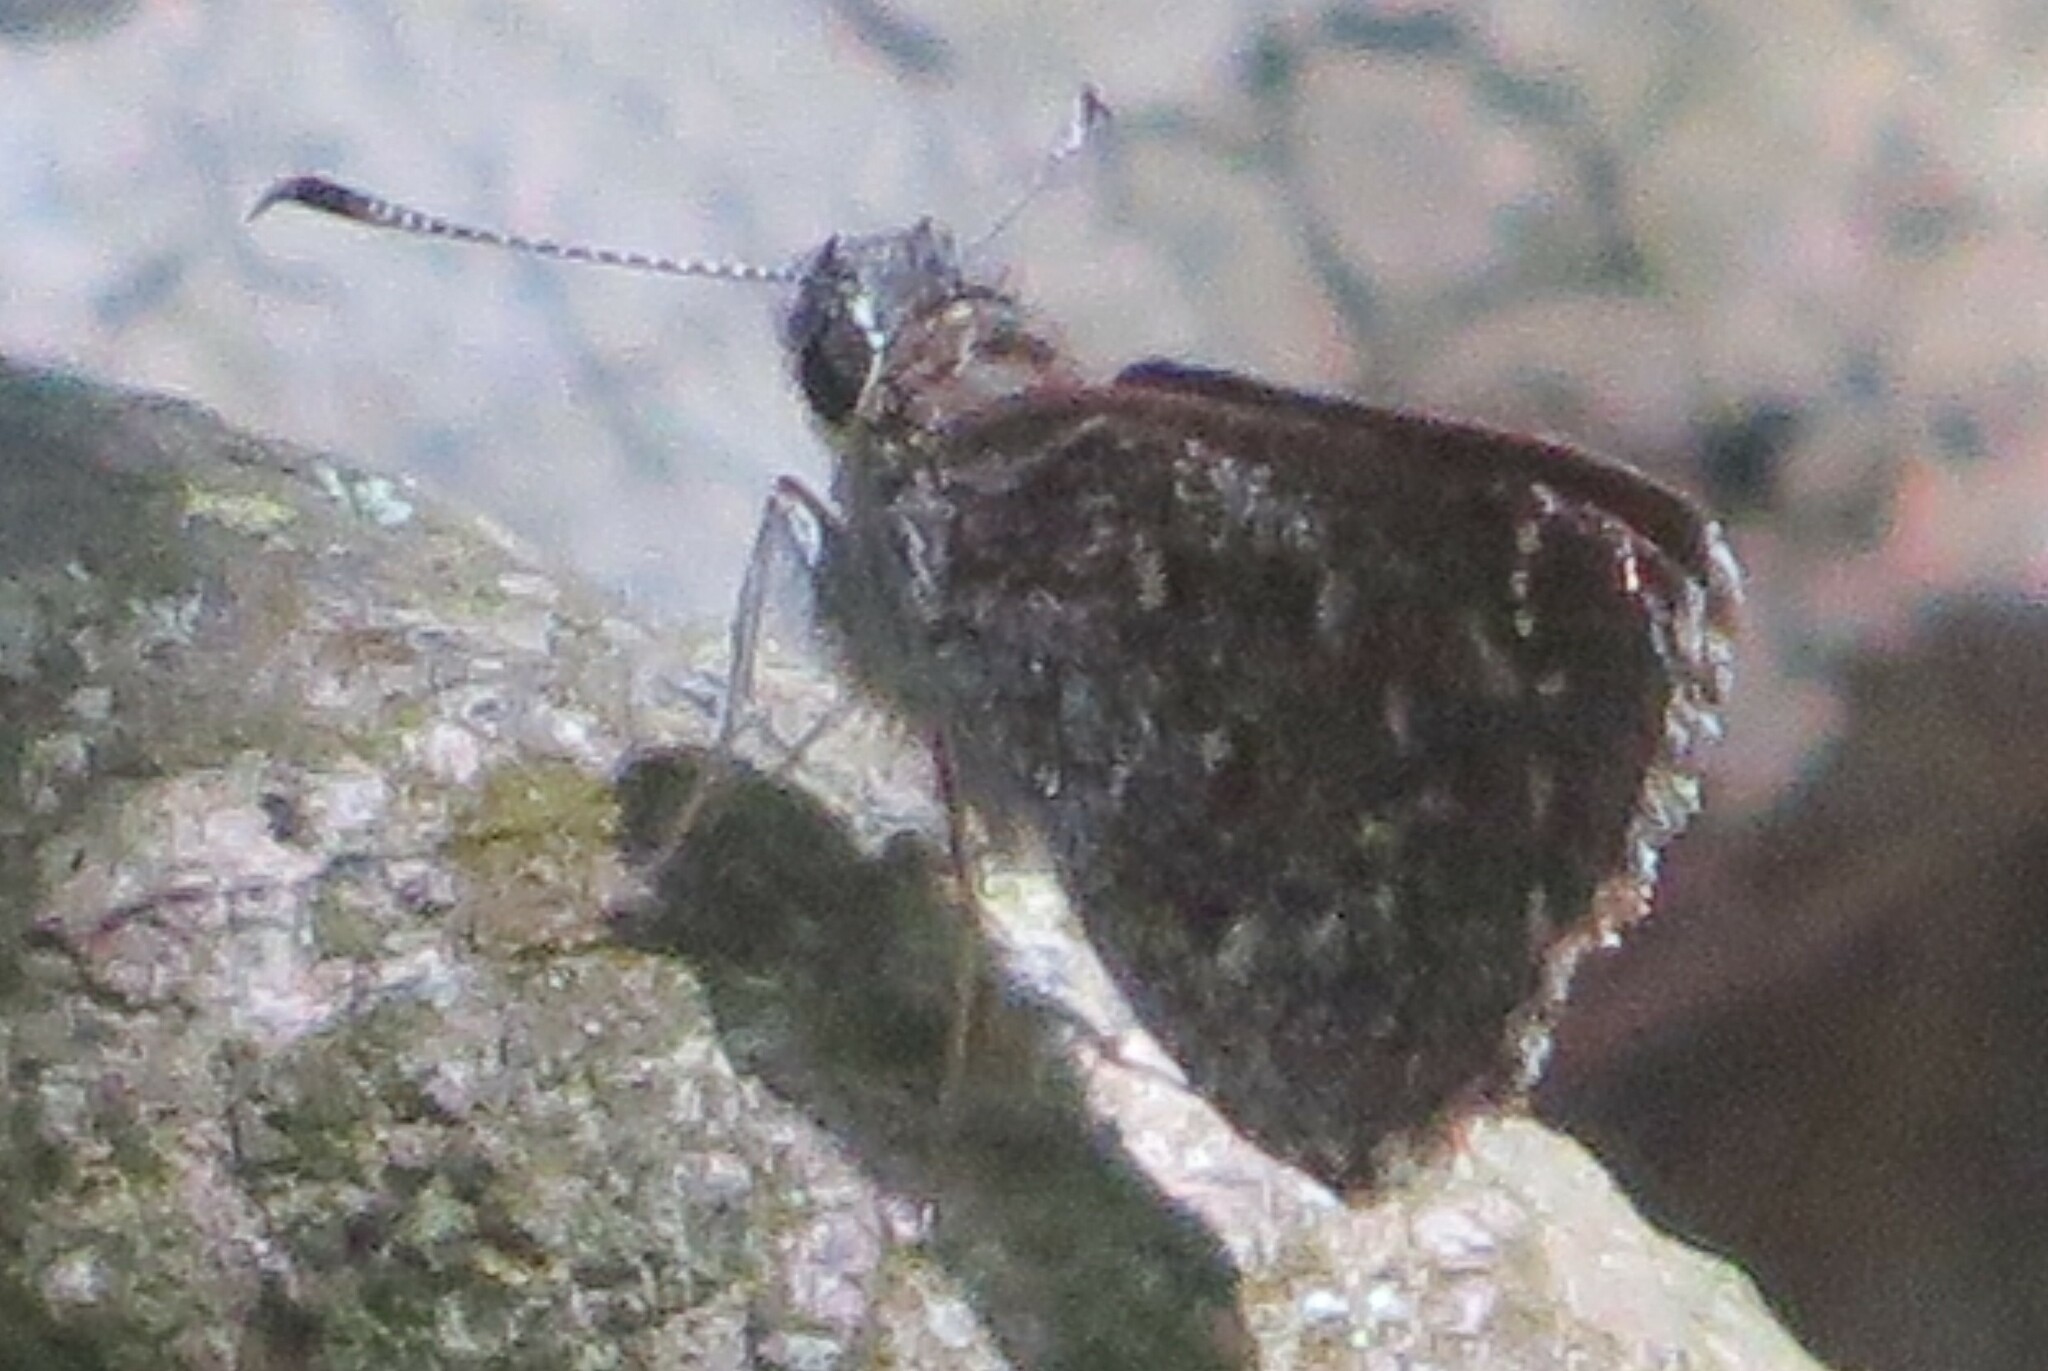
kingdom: Animalia
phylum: Arthropoda
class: Insecta
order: Lepidoptera
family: Hesperiidae
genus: Mastor
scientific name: Mastor celia
